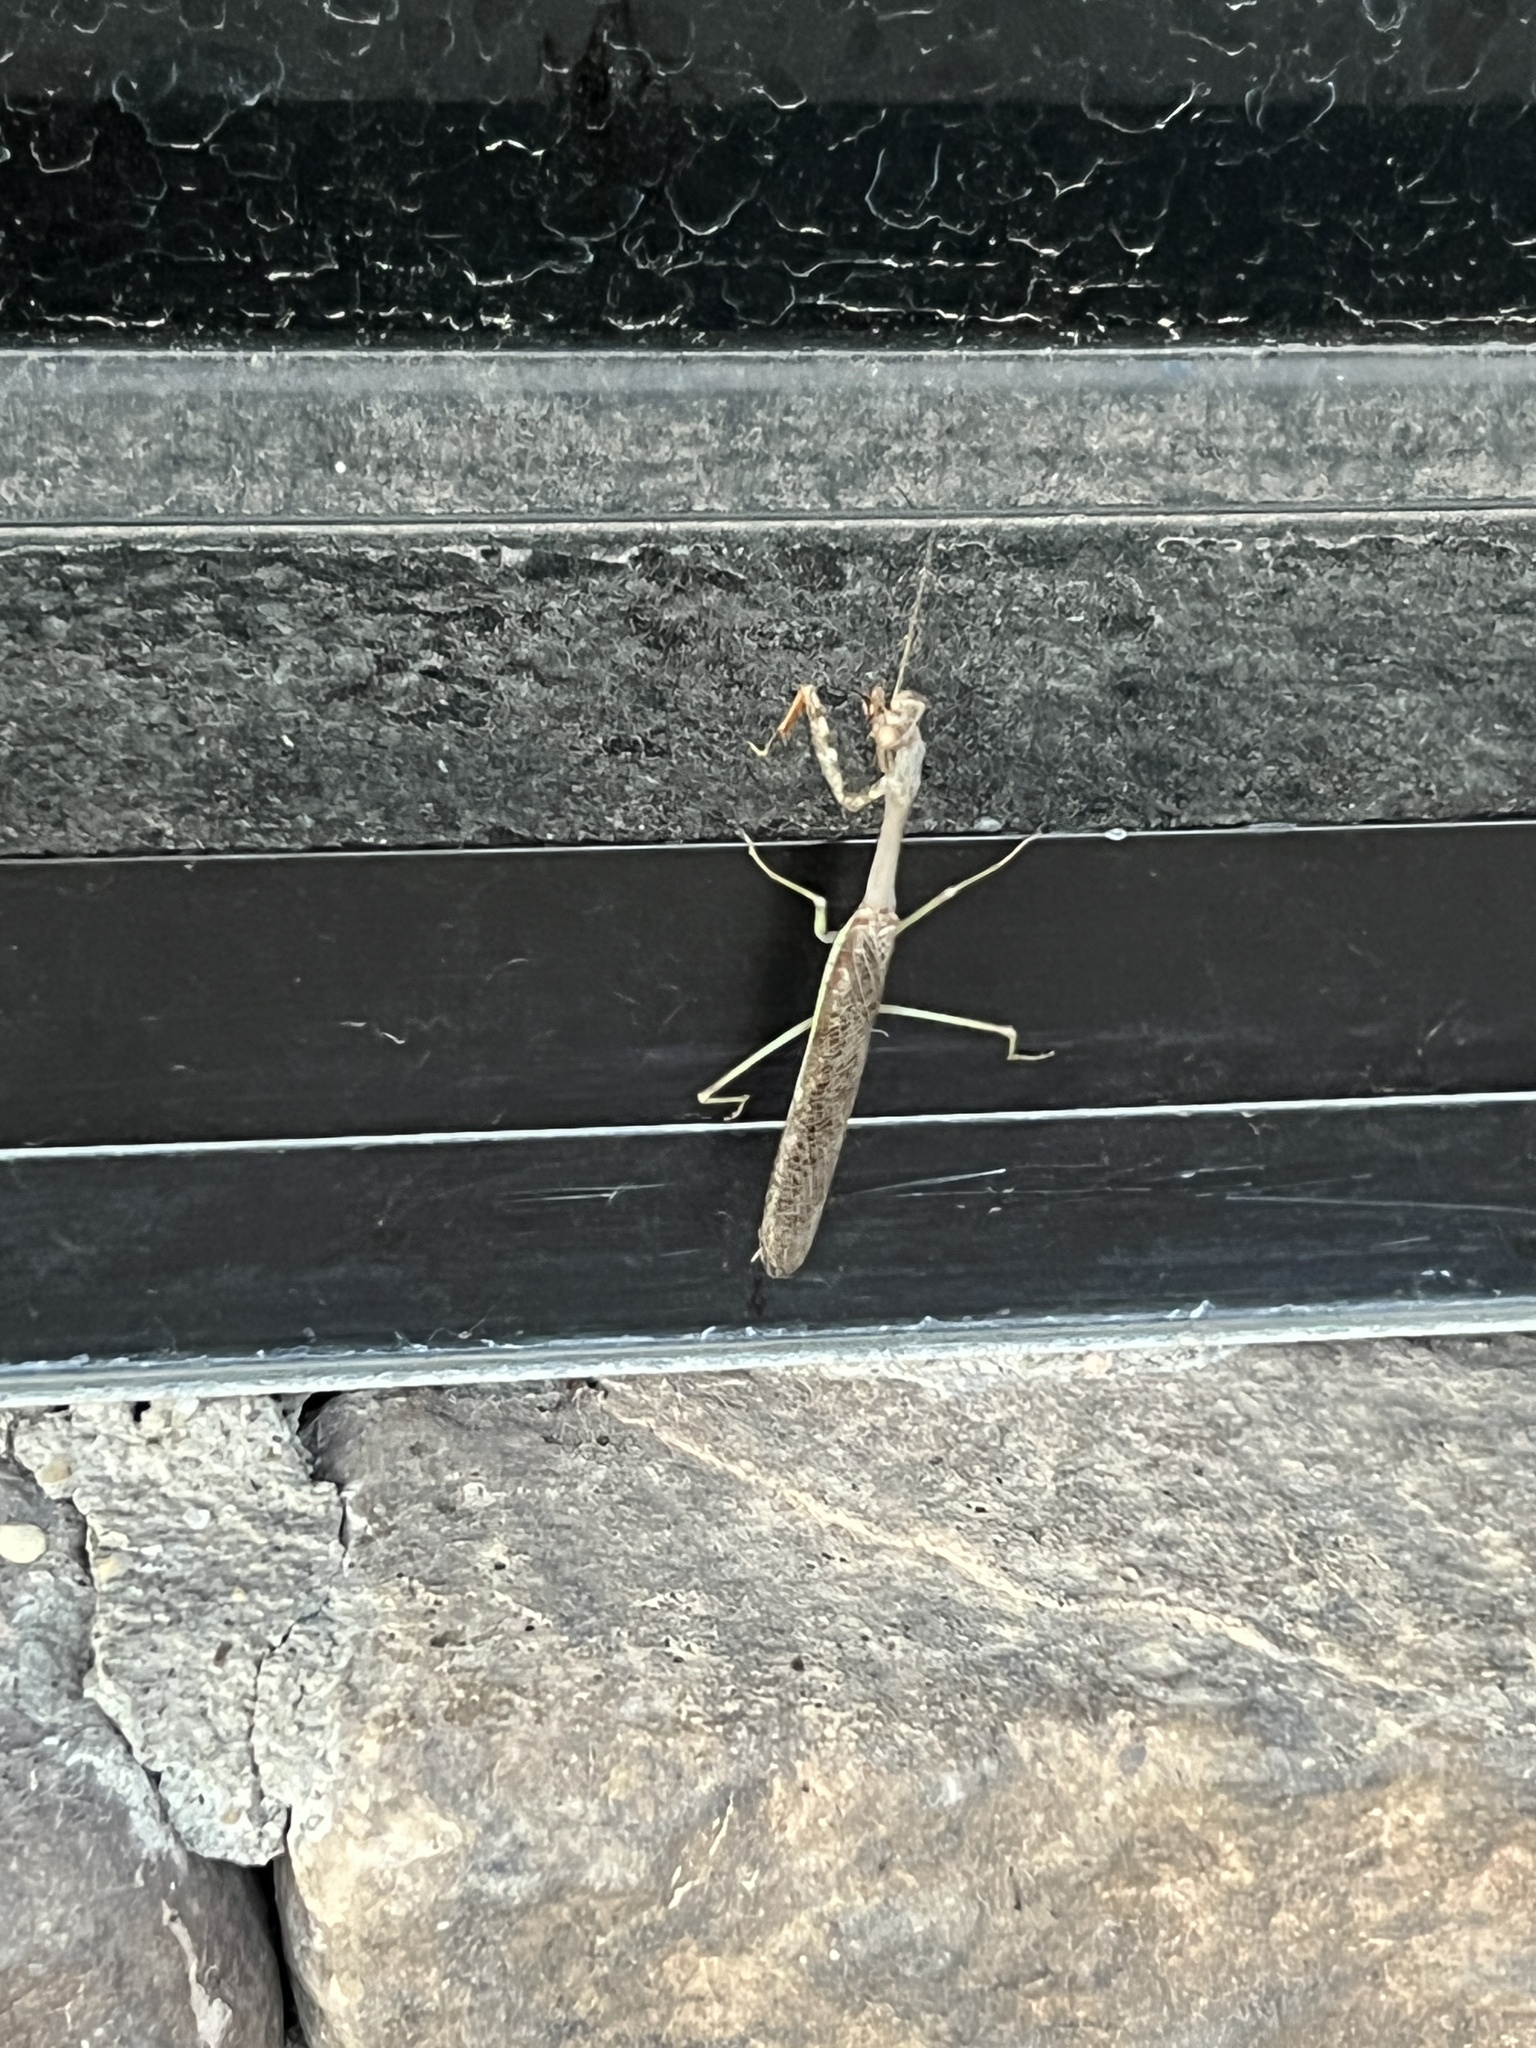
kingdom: Animalia
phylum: Arthropoda
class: Insecta
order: Mantodea
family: Mantidae
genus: Stagmomantis
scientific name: Stagmomantis californica
